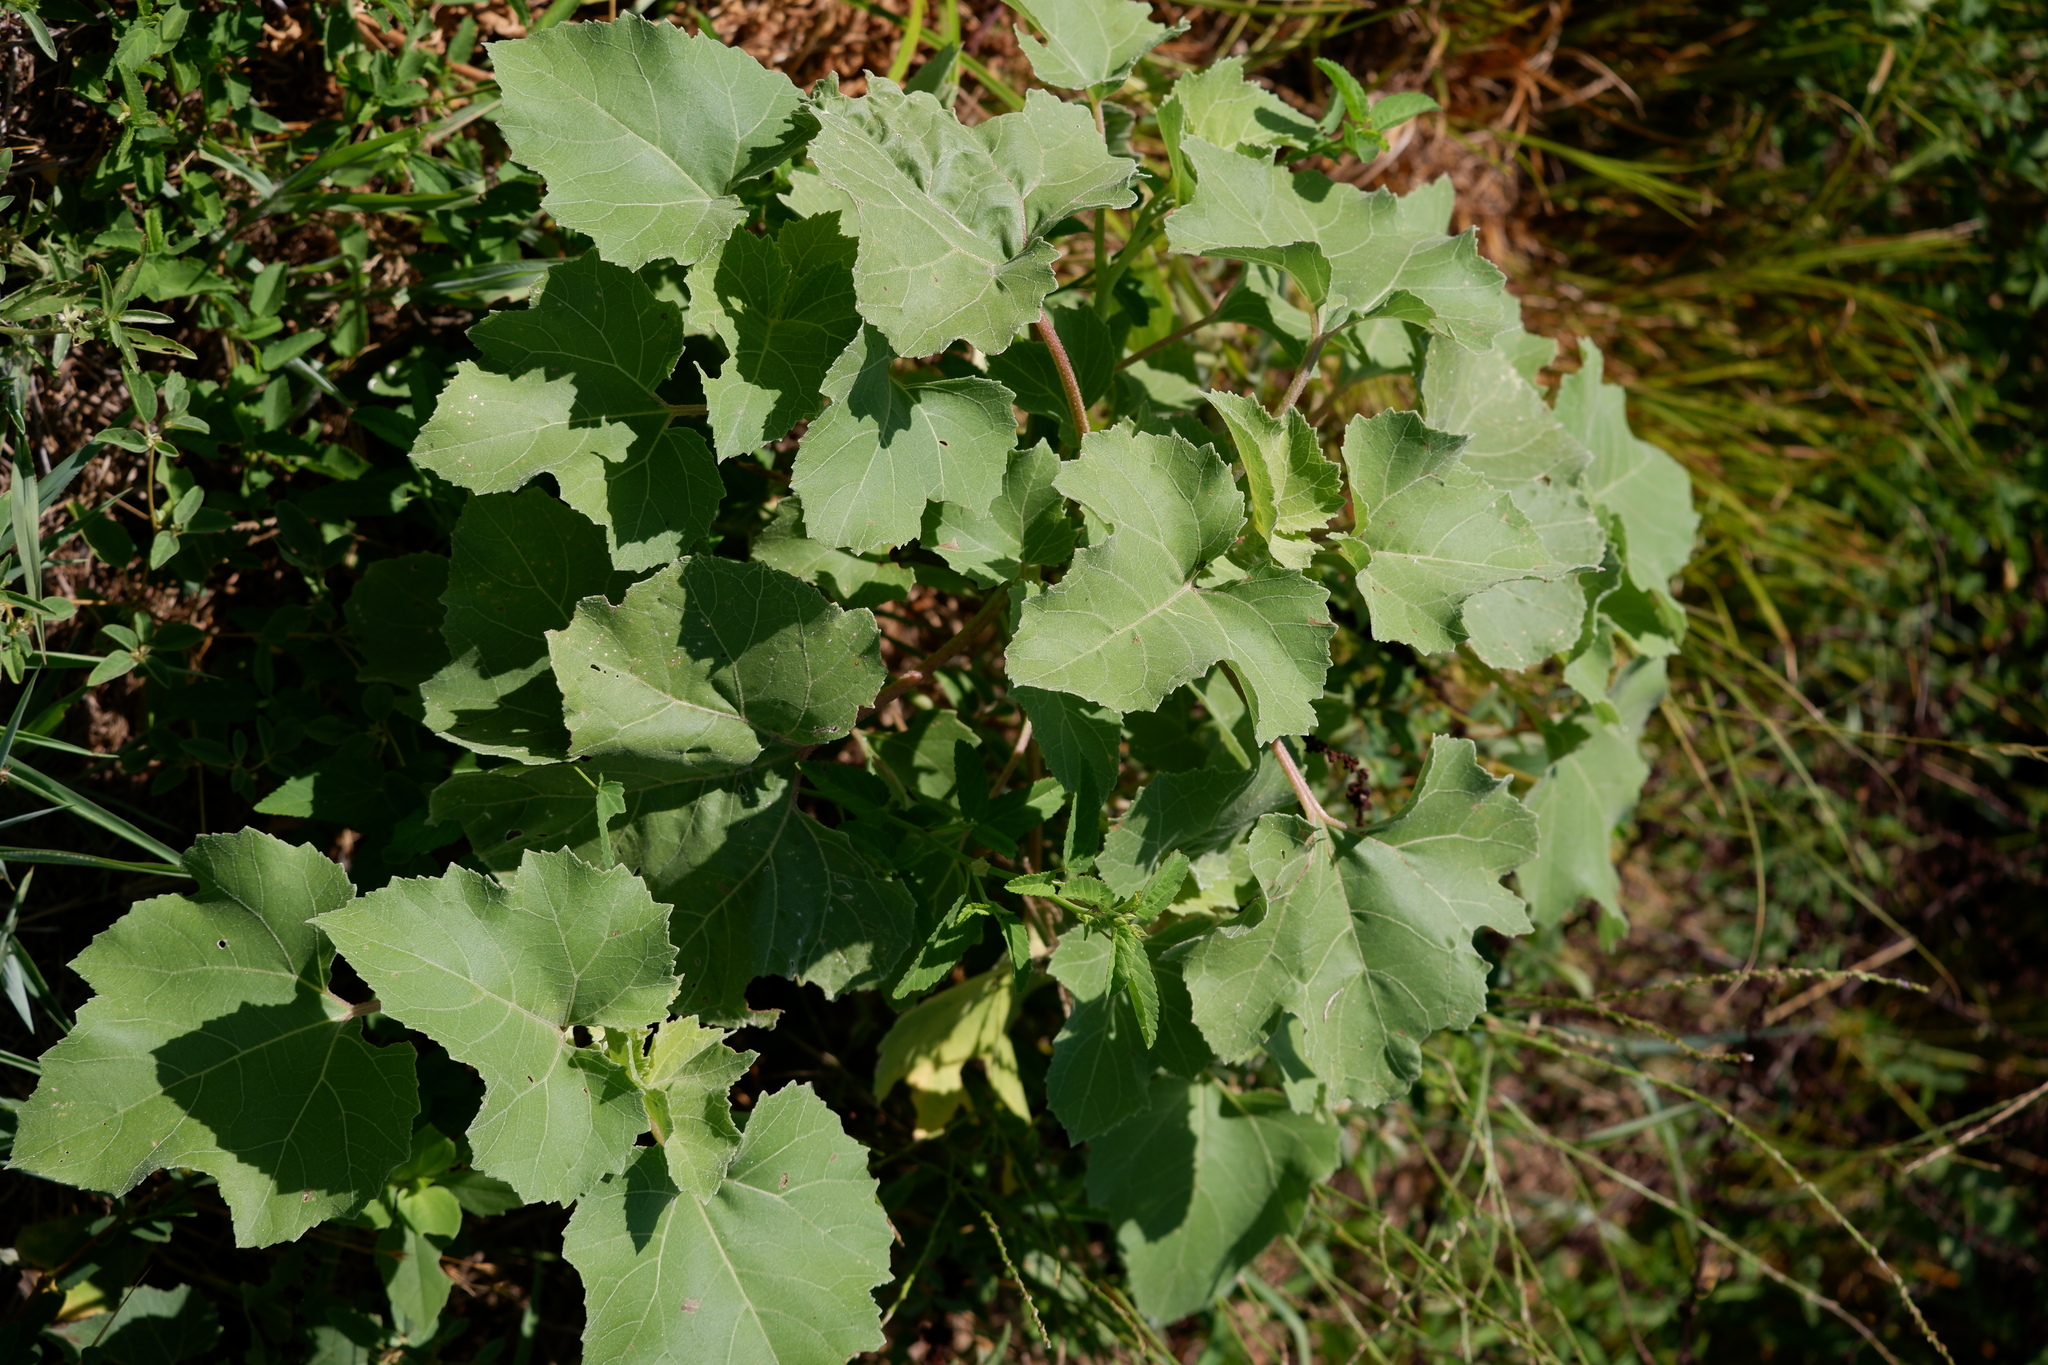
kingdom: Plantae
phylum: Tracheophyta
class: Magnoliopsida
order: Asterales
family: Asteraceae
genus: Xanthium
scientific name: Xanthium strumarium
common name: Rough cocklebur
